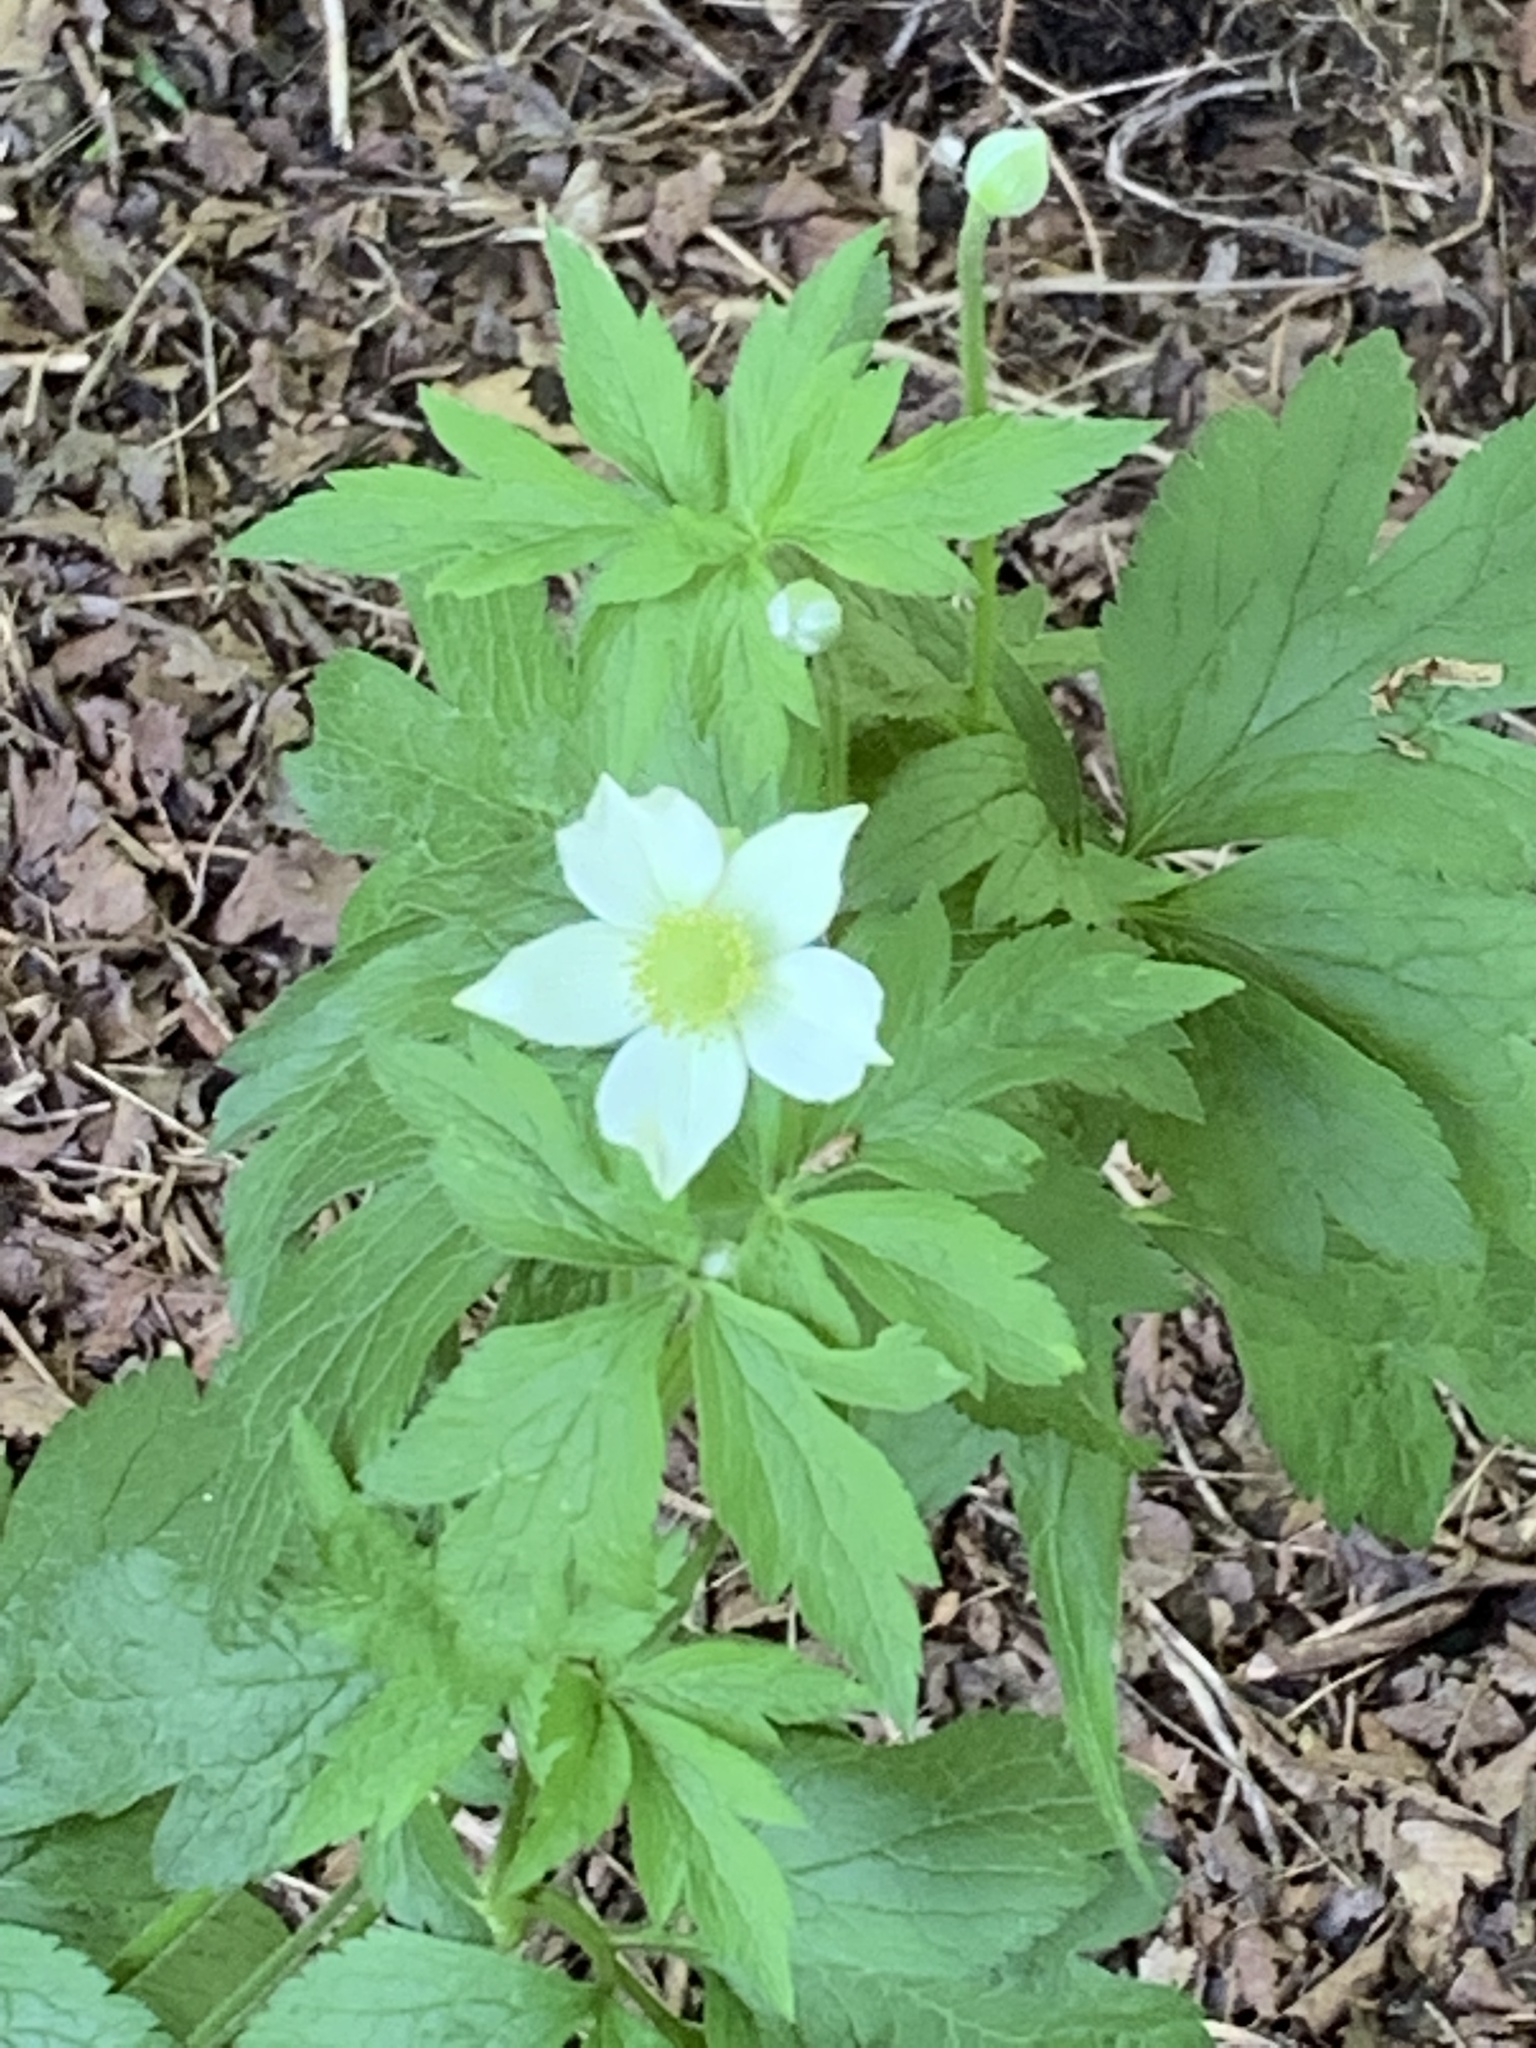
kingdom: Plantae
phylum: Tracheophyta
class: Magnoliopsida
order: Ranunculales
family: Ranunculaceae
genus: Anemone
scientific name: Anemone virginiana
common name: Tall anemone
